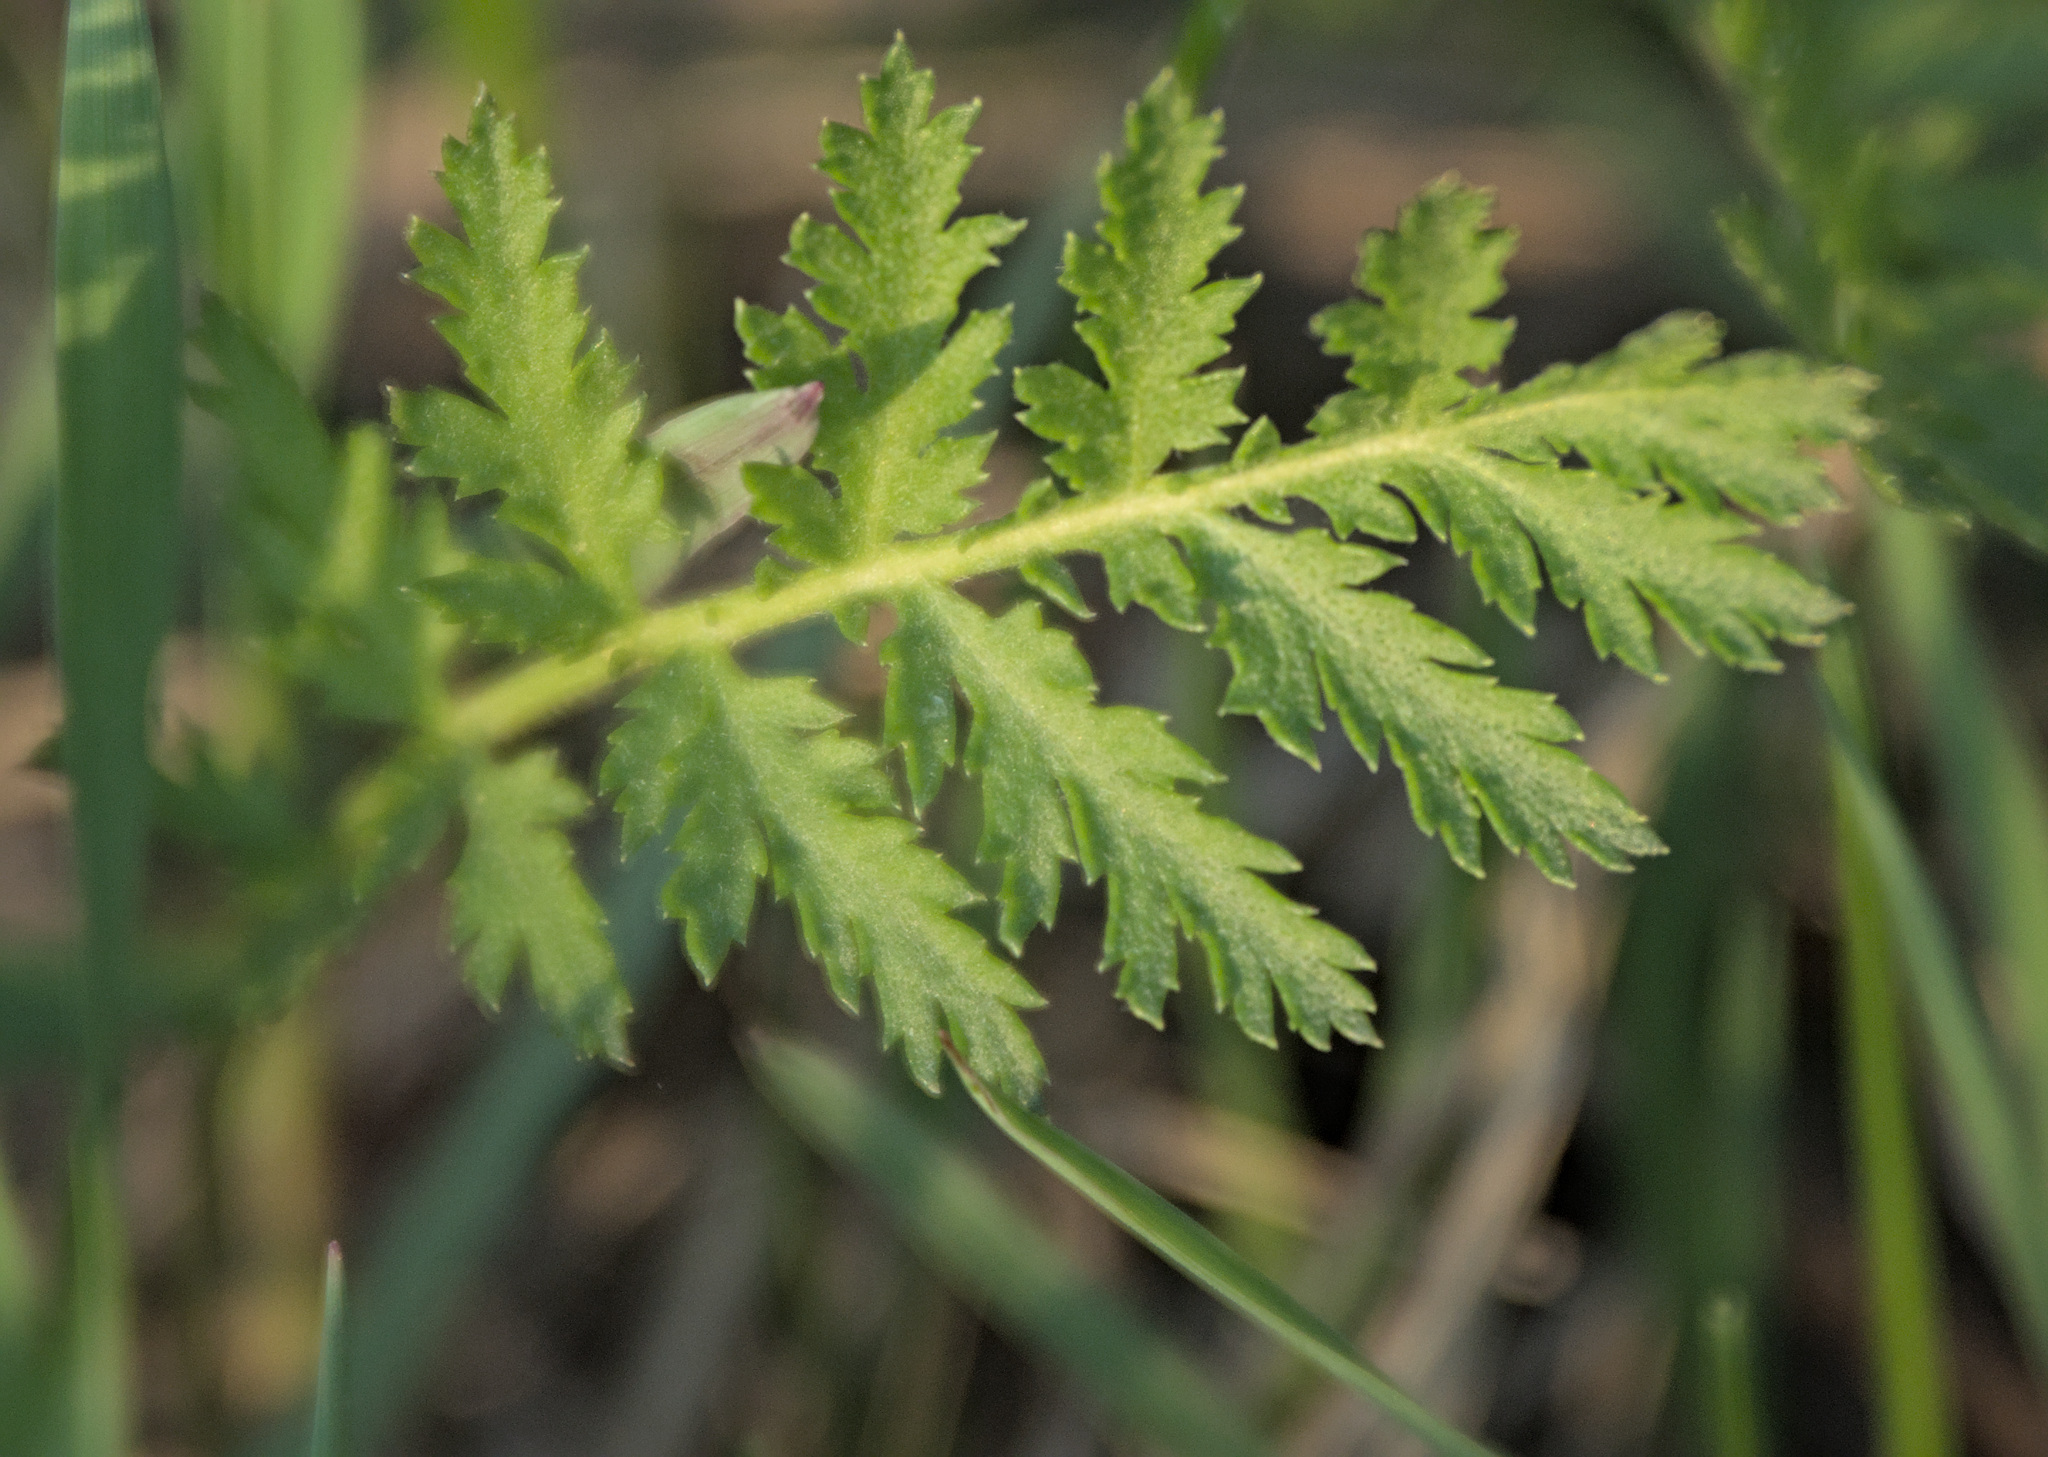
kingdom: Plantae
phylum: Tracheophyta
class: Magnoliopsida
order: Asterales
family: Asteraceae
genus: Tanacetum
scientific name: Tanacetum vulgare
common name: Common tansy
